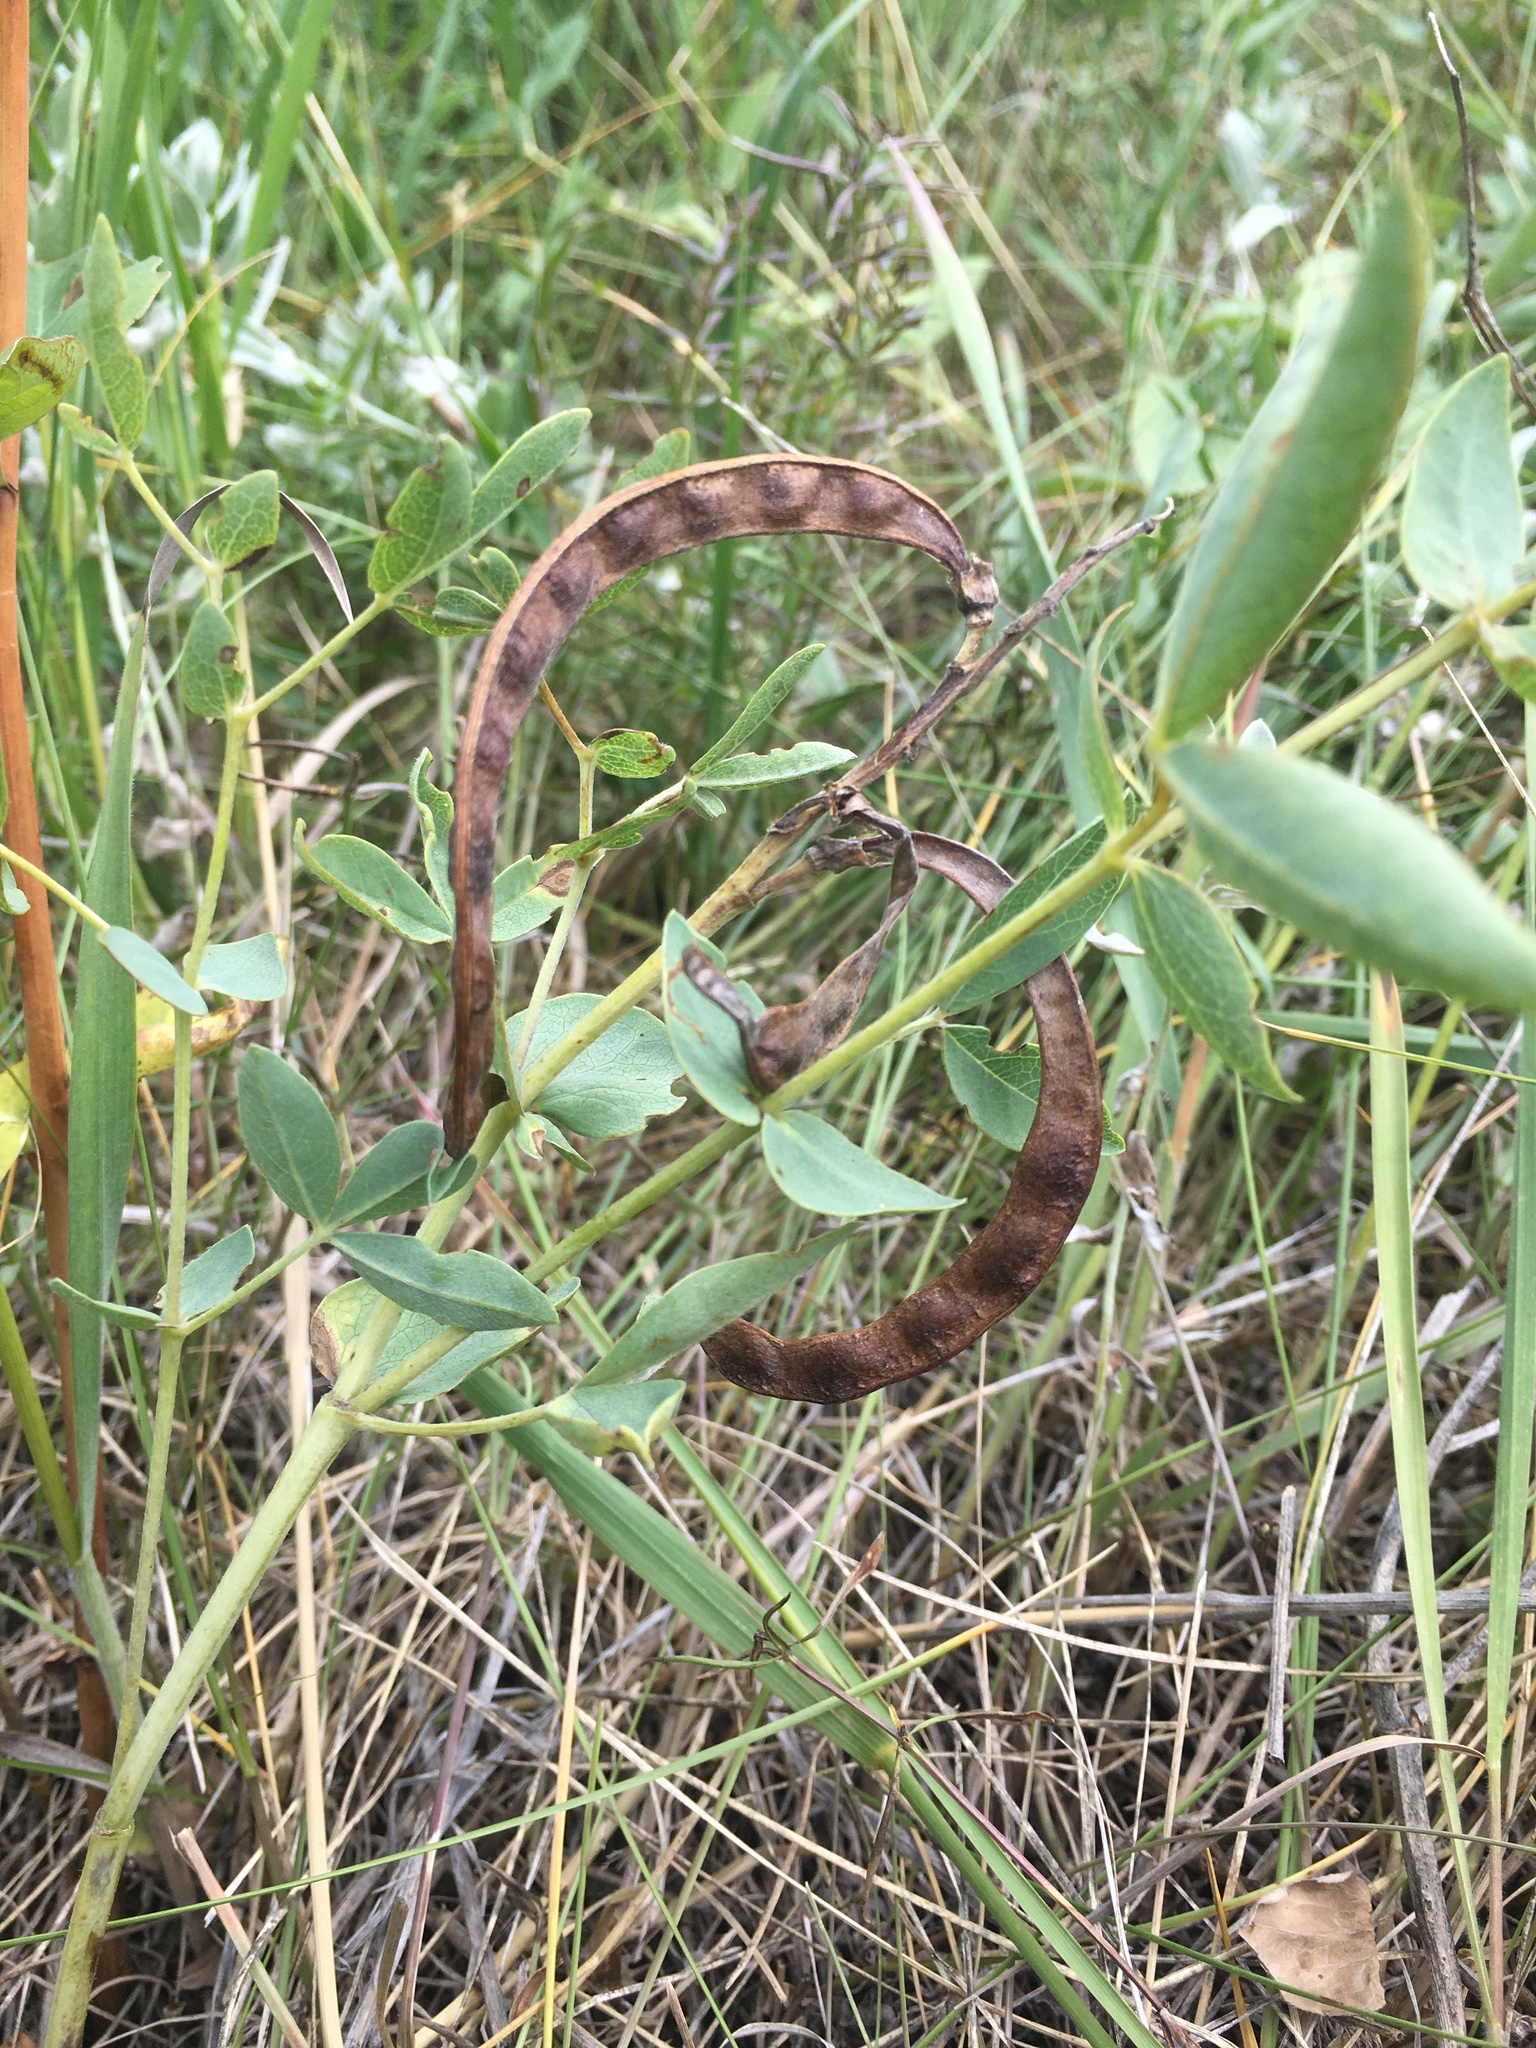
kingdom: Plantae
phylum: Tracheophyta
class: Magnoliopsida
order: Fabales
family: Fabaceae
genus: Thermopsis
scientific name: Thermopsis rhombifolia
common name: Circle-pod-pea
